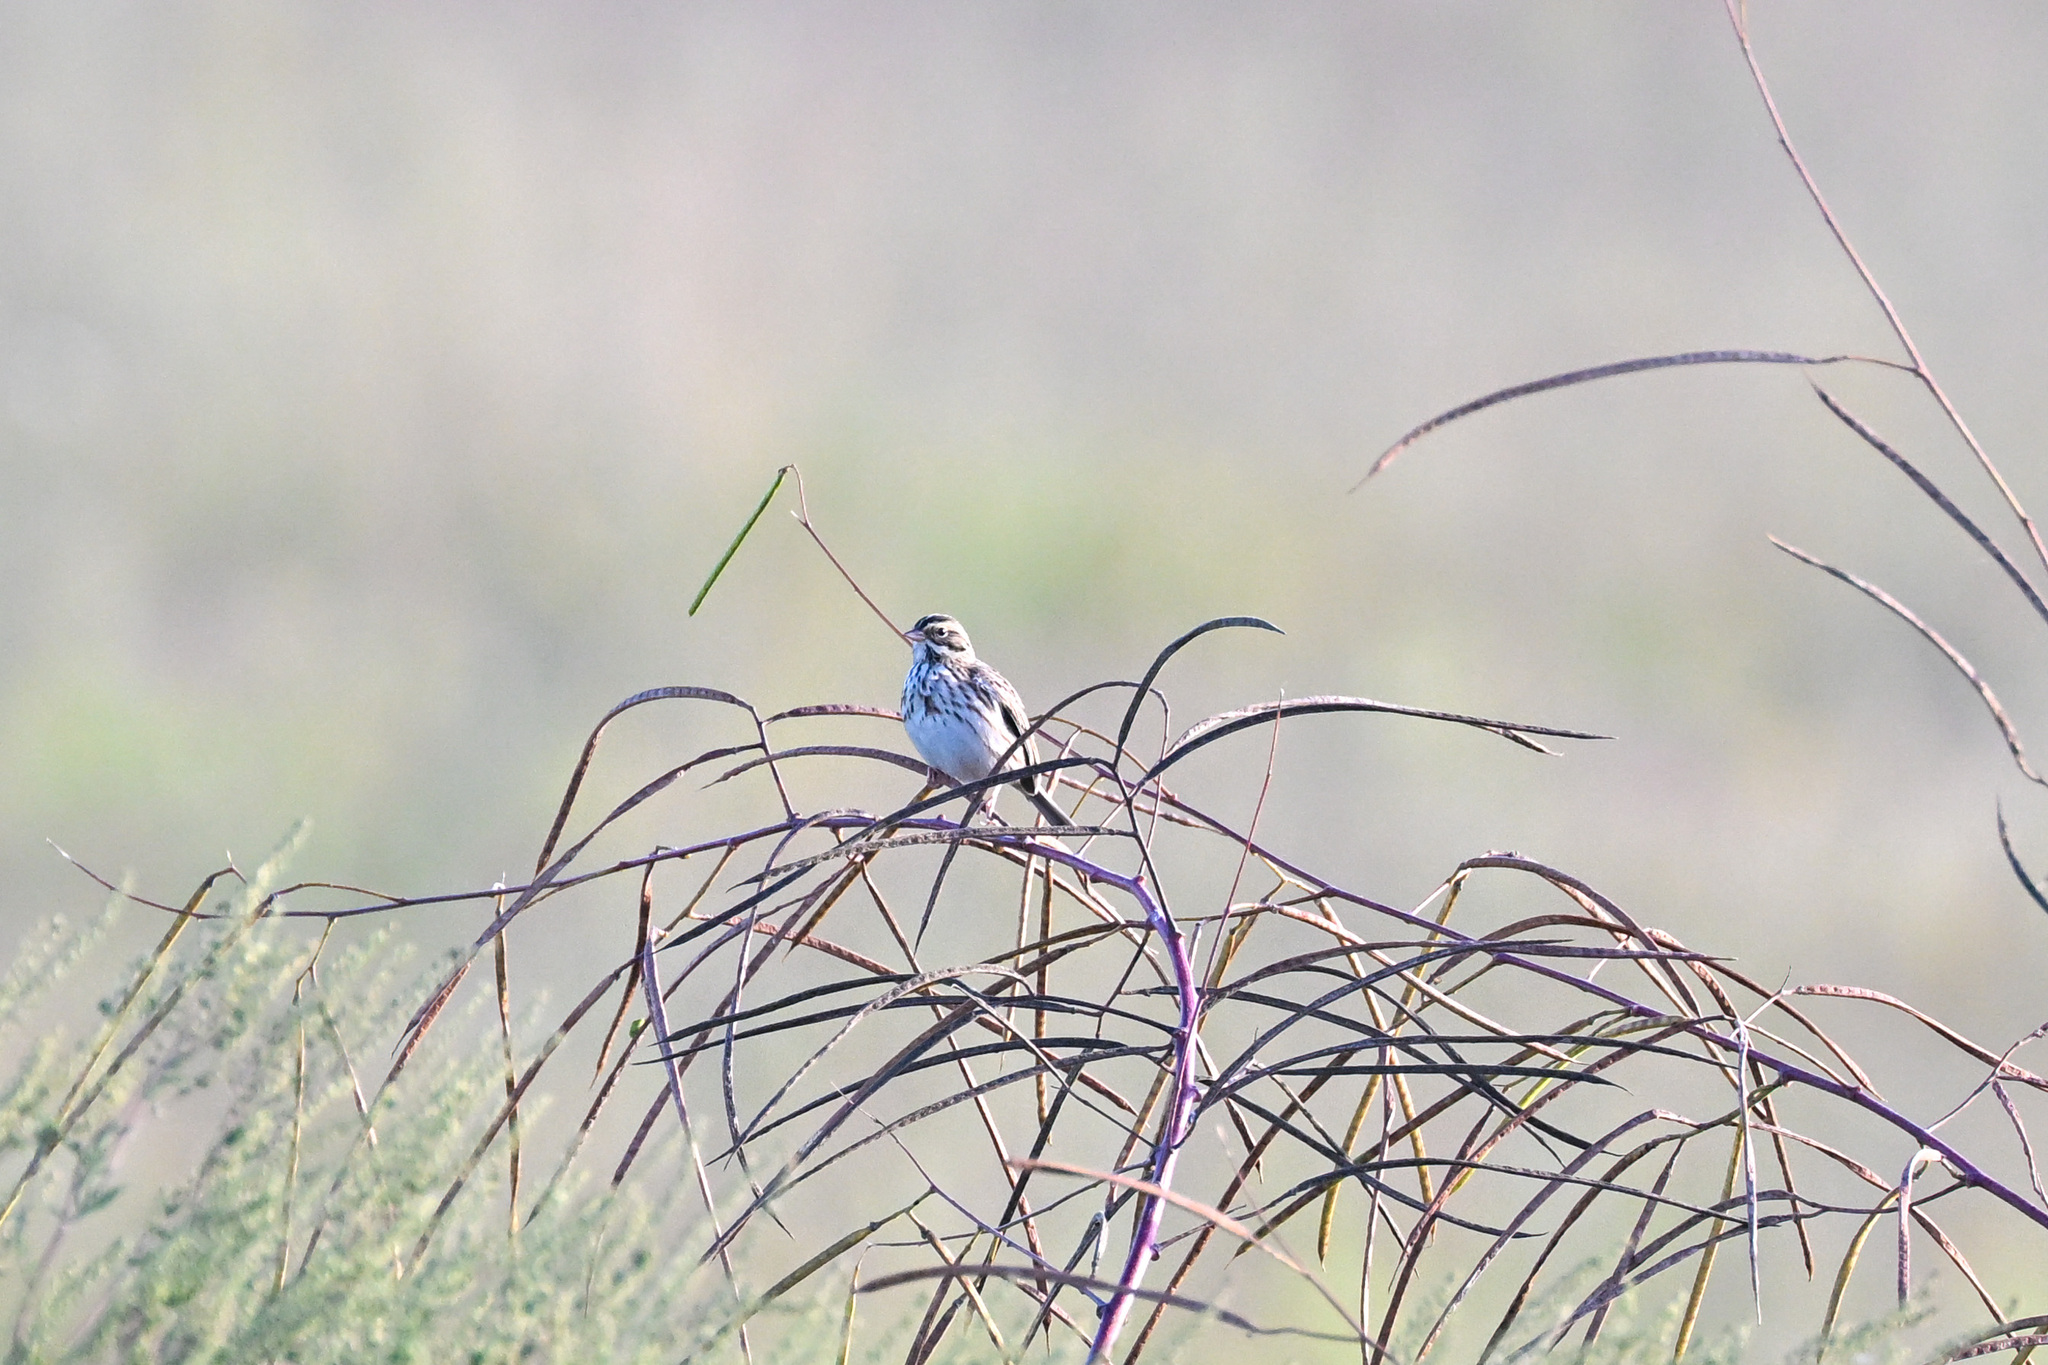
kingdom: Animalia
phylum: Chordata
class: Aves
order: Passeriformes
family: Passerellidae
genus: Passerculus
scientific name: Passerculus sandwichensis
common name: Savannah sparrow
